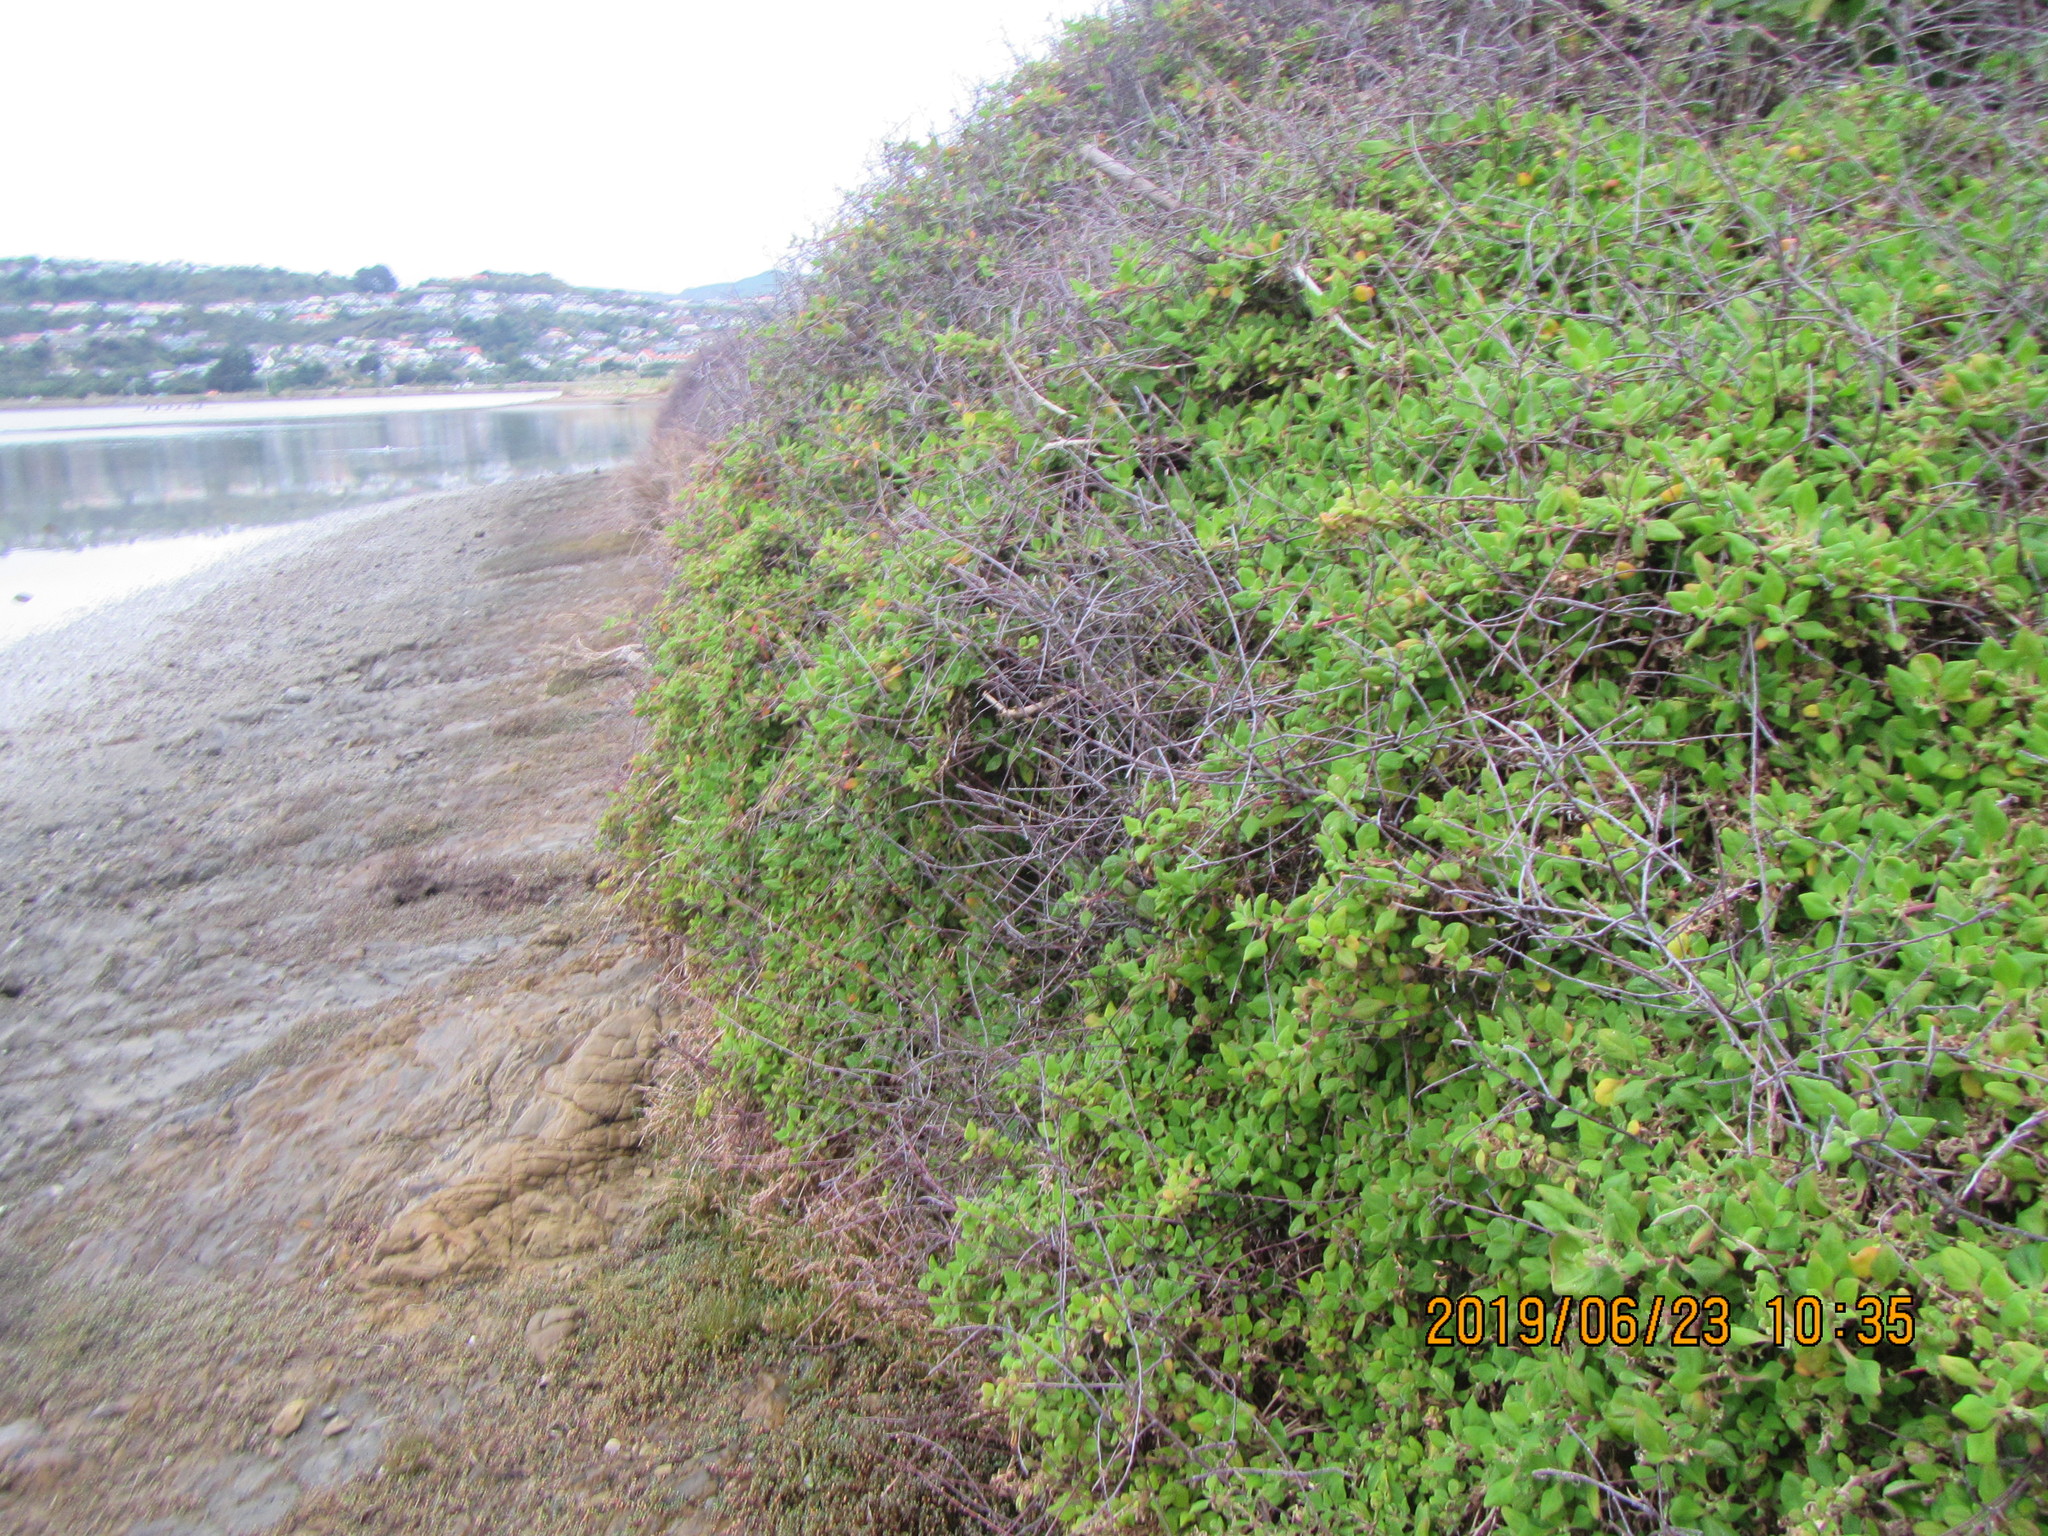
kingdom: Plantae
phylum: Tracheophyta
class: Magnoliopsida
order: Caryophyllales
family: Aizoaceae
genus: Tetragonia
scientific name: Tetragonia implexicoma
